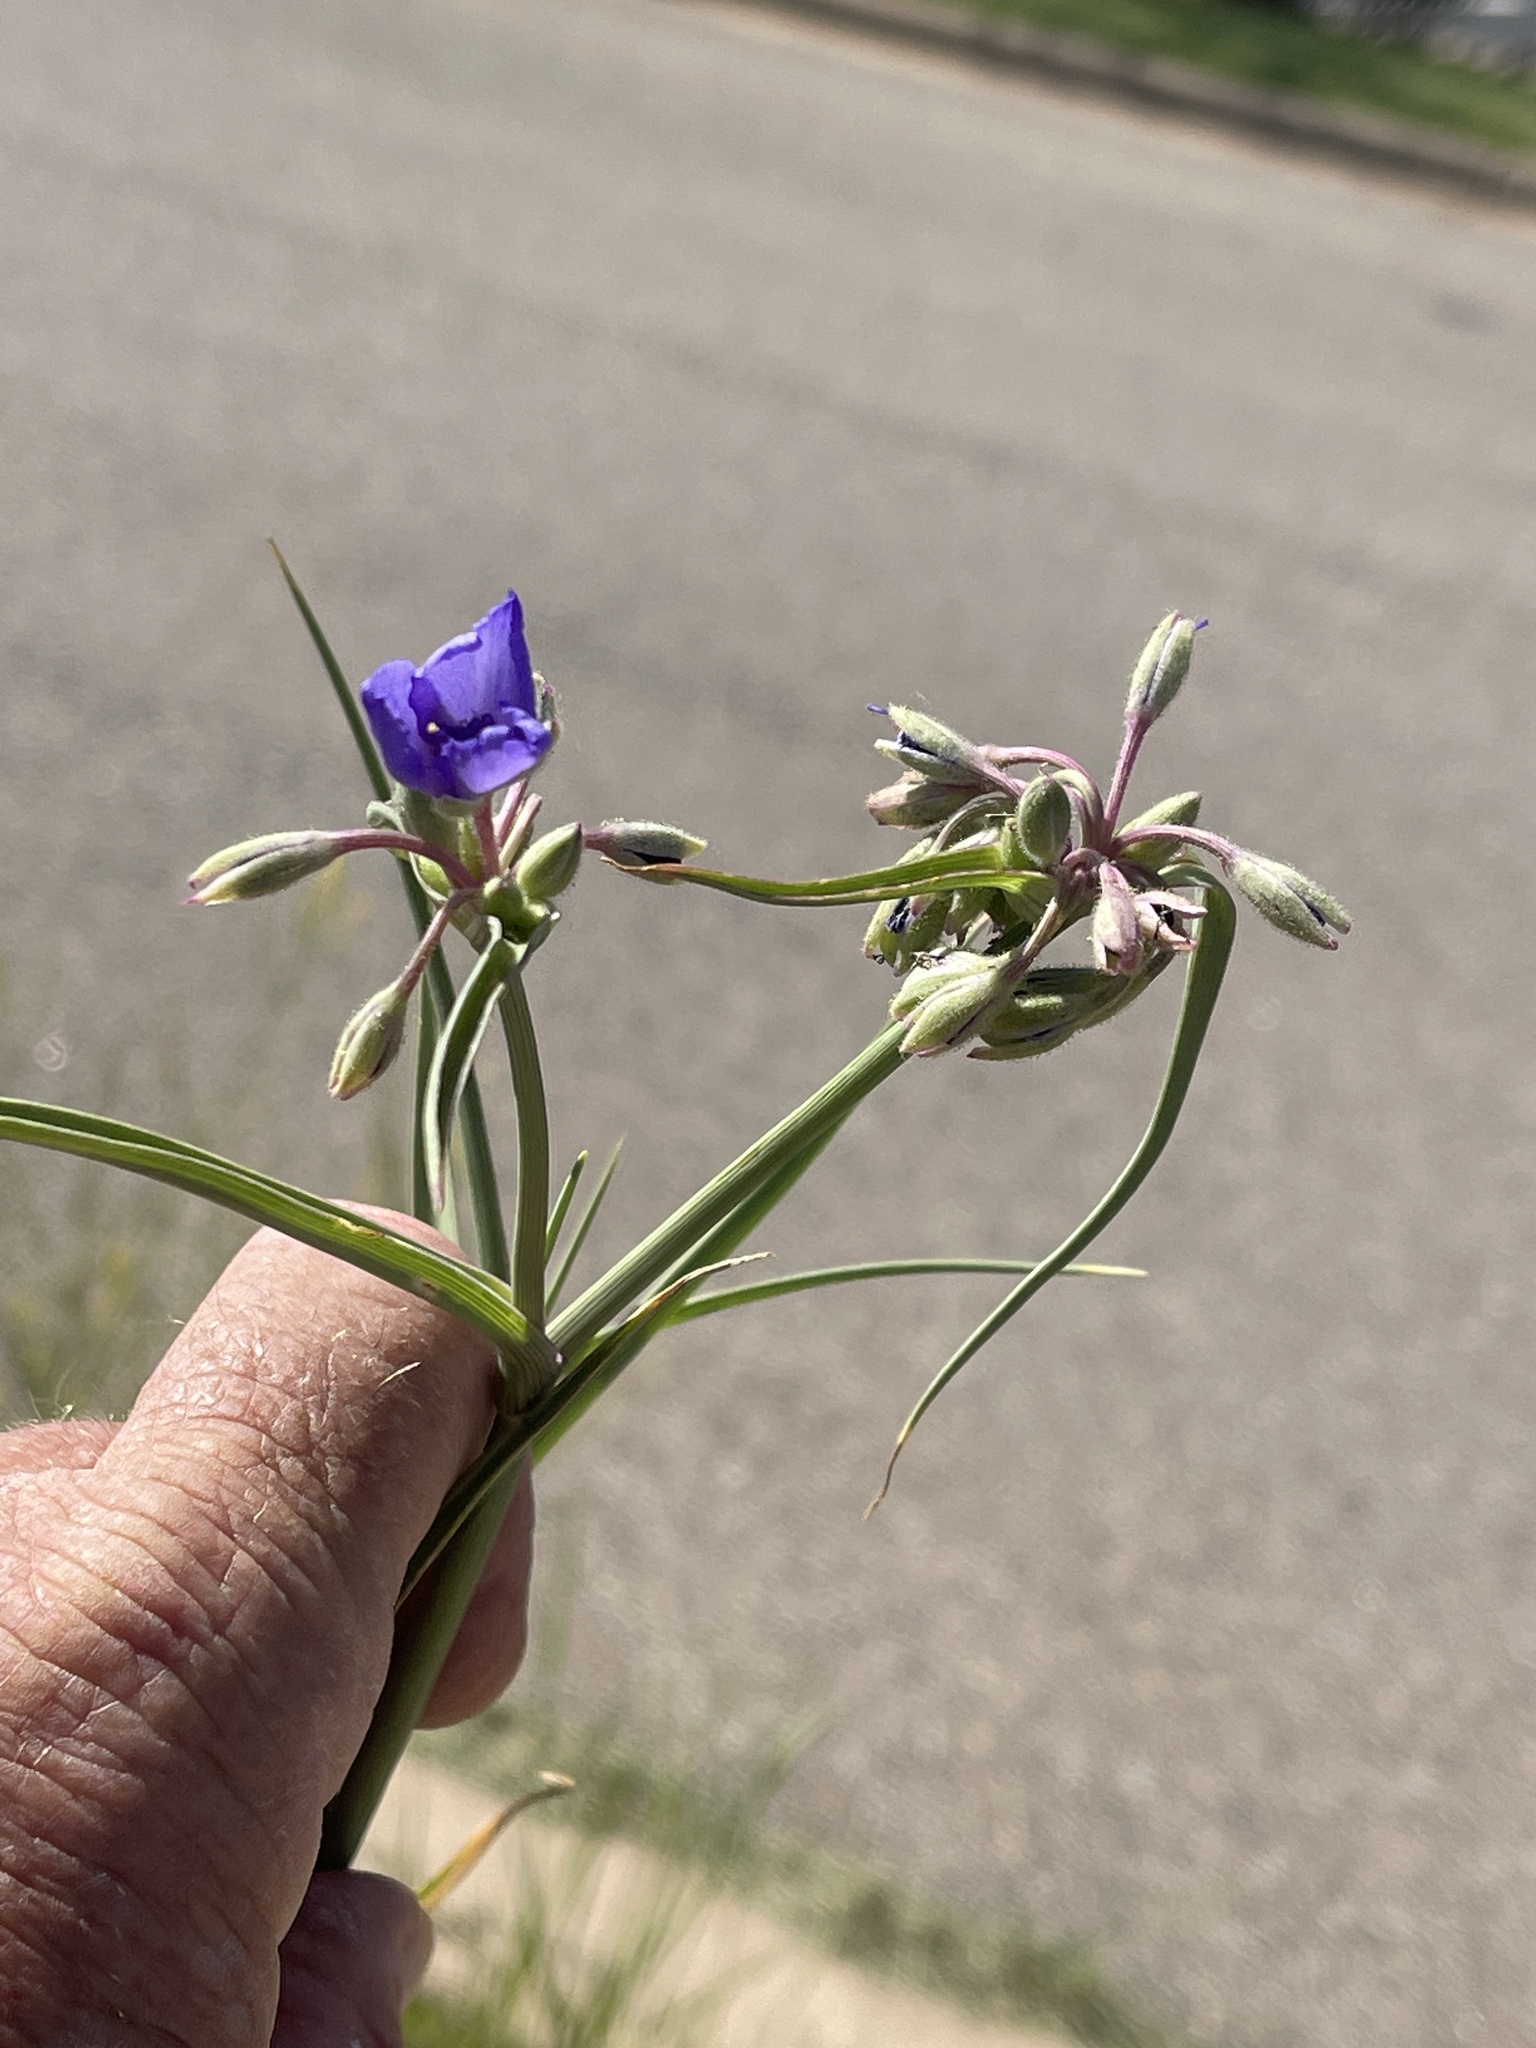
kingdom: Plantae
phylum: Tracheophyta
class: Liliopsida
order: Commelinales
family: Commelinaceae
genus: Tradescantia
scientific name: Tradescantia occidentalis
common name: Prairie spiderwort
